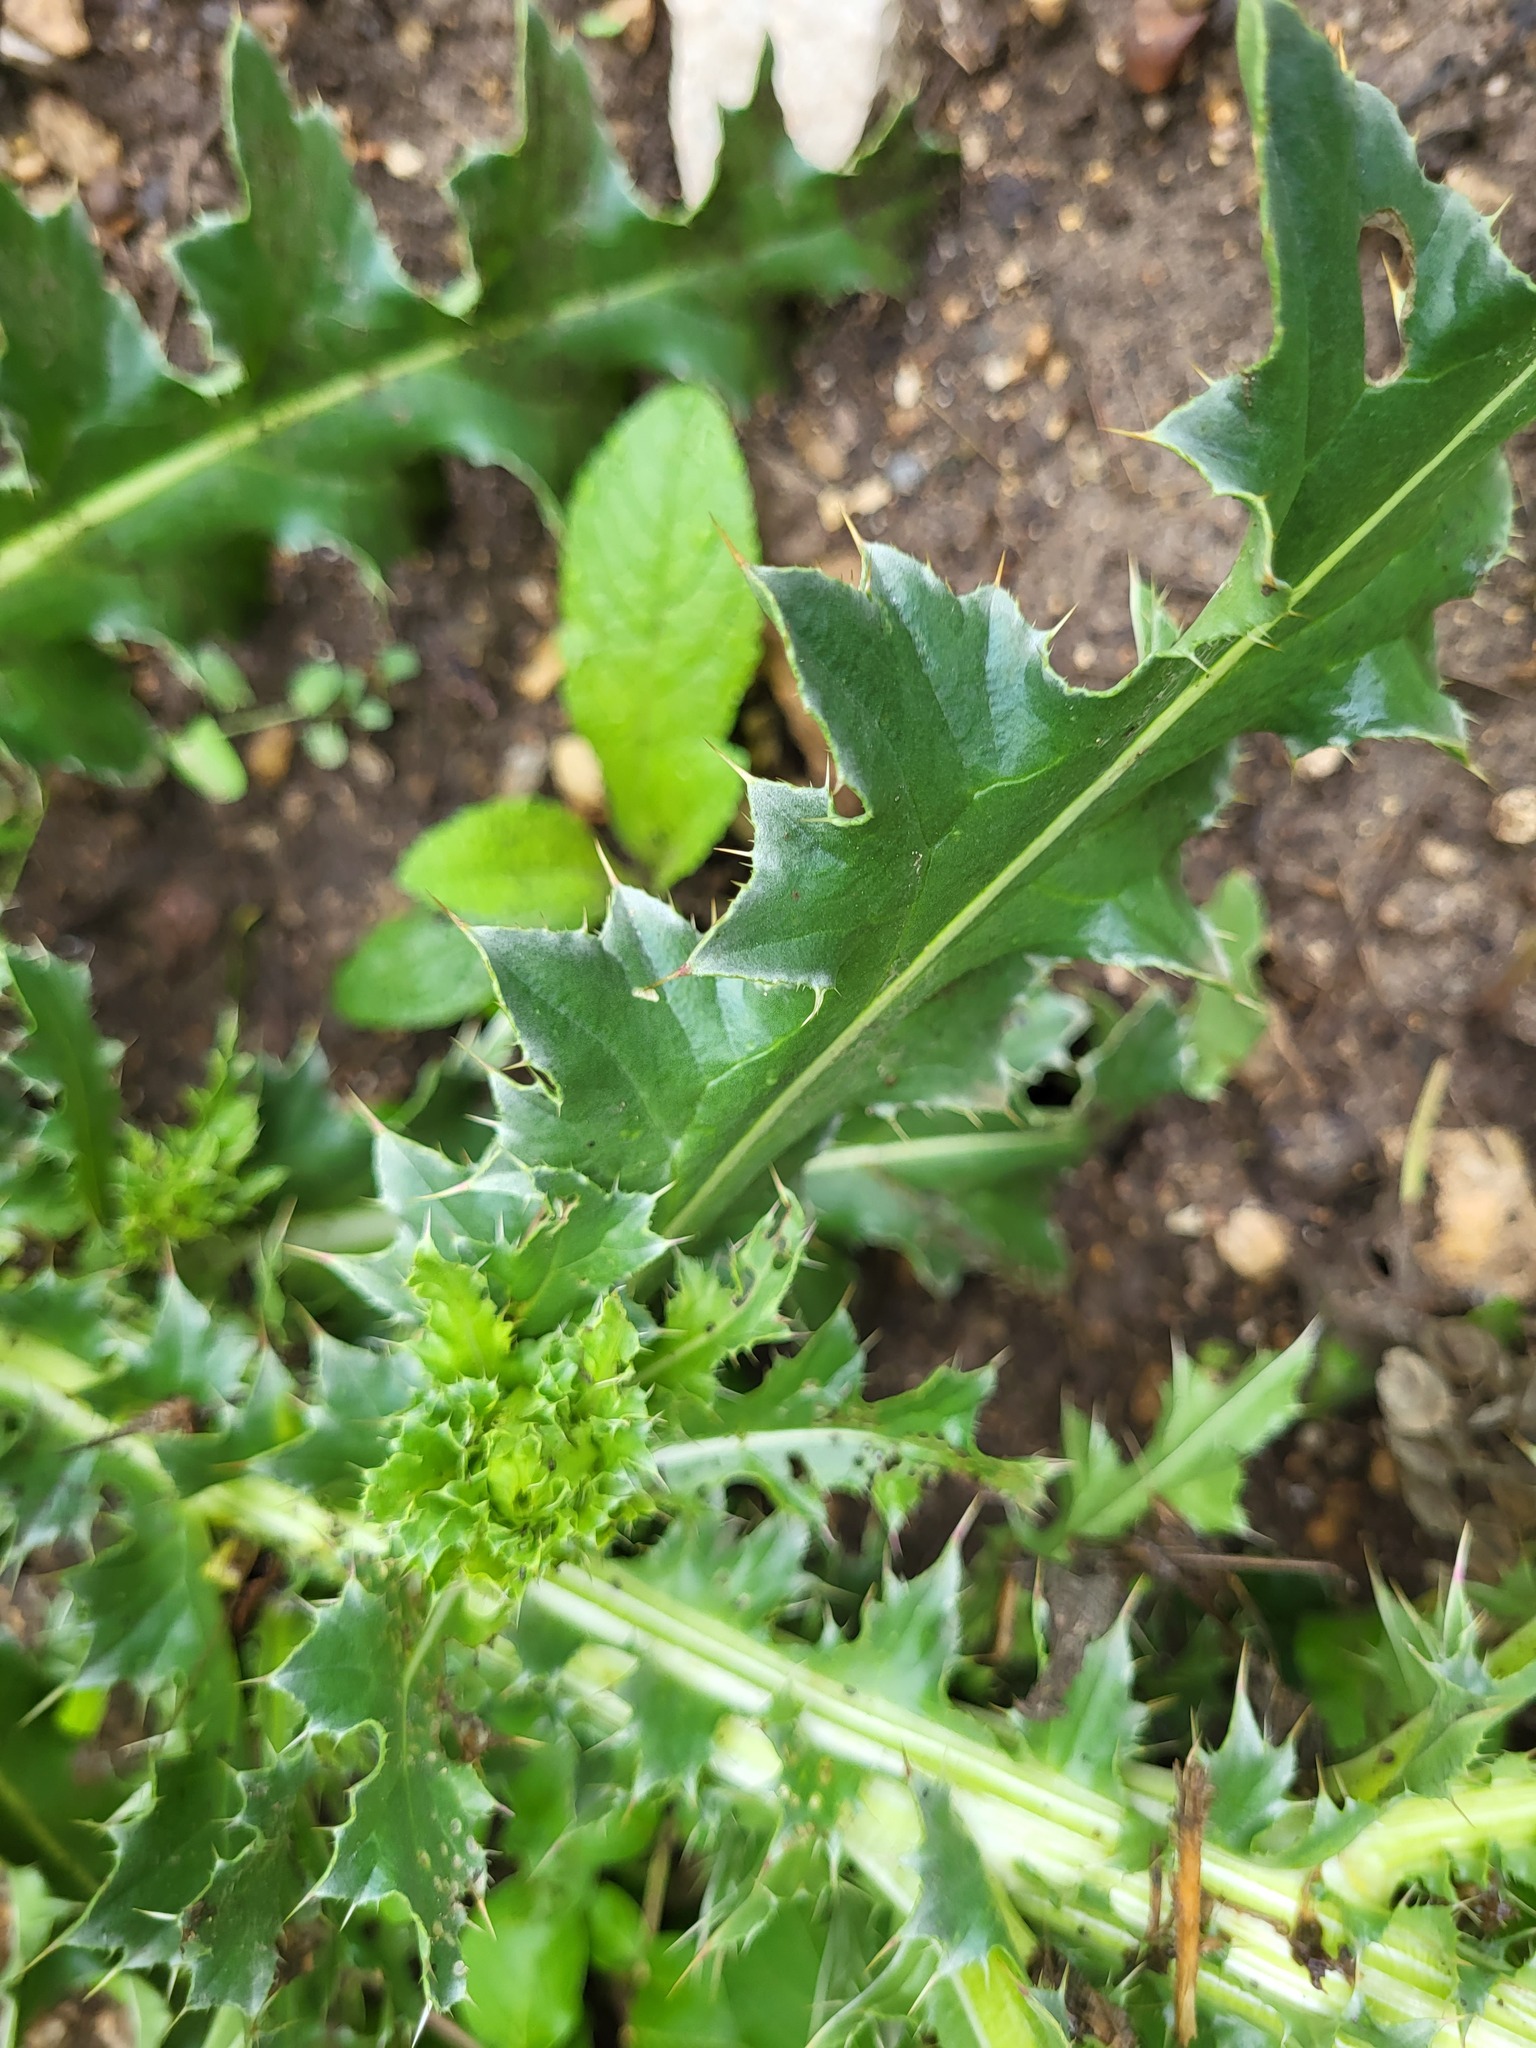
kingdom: Plantae
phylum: Tracheophyta
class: Magnoliopsida
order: Asterales
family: Asteraceae
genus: Carduus
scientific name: Carduus nutans
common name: Musk thistle
